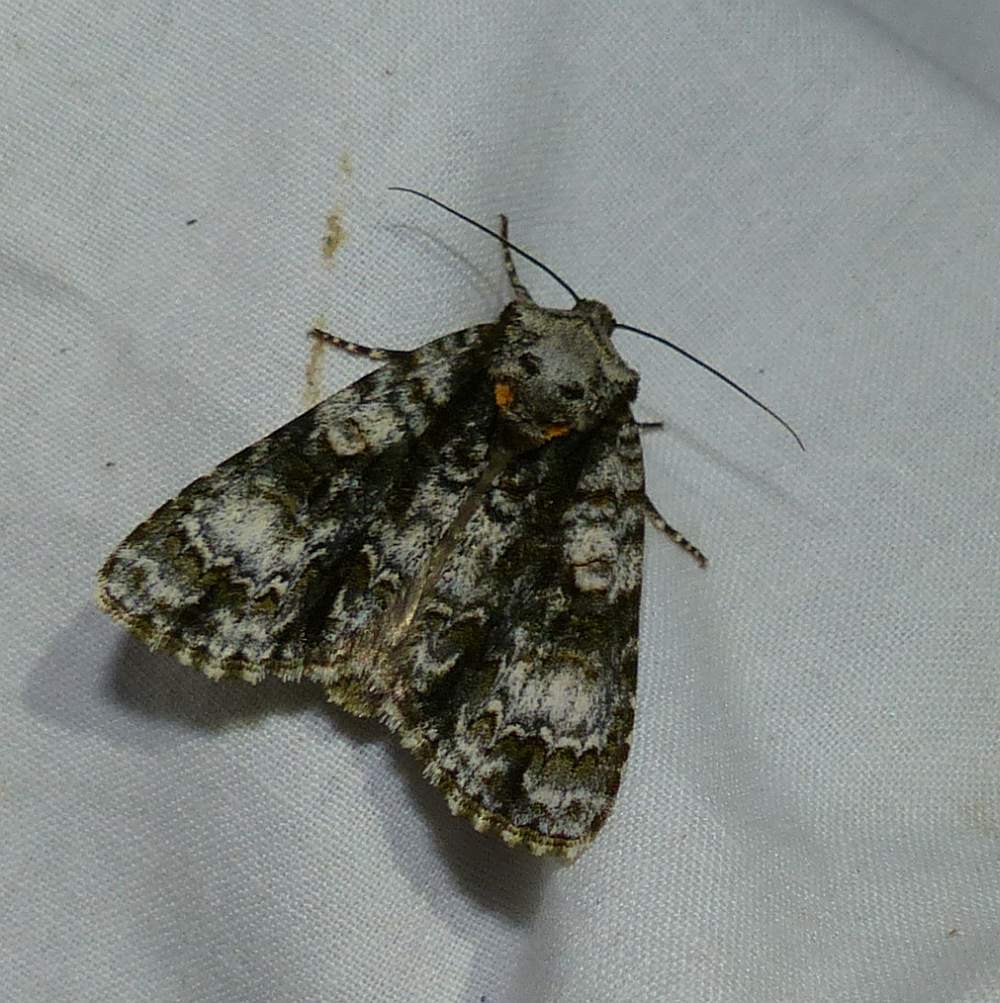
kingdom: Animalia
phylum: Arthropoda
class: Insecta
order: Lepidoptera
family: Noctuidae
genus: Acronicta
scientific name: Acronicta superans
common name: Splendid dagger
